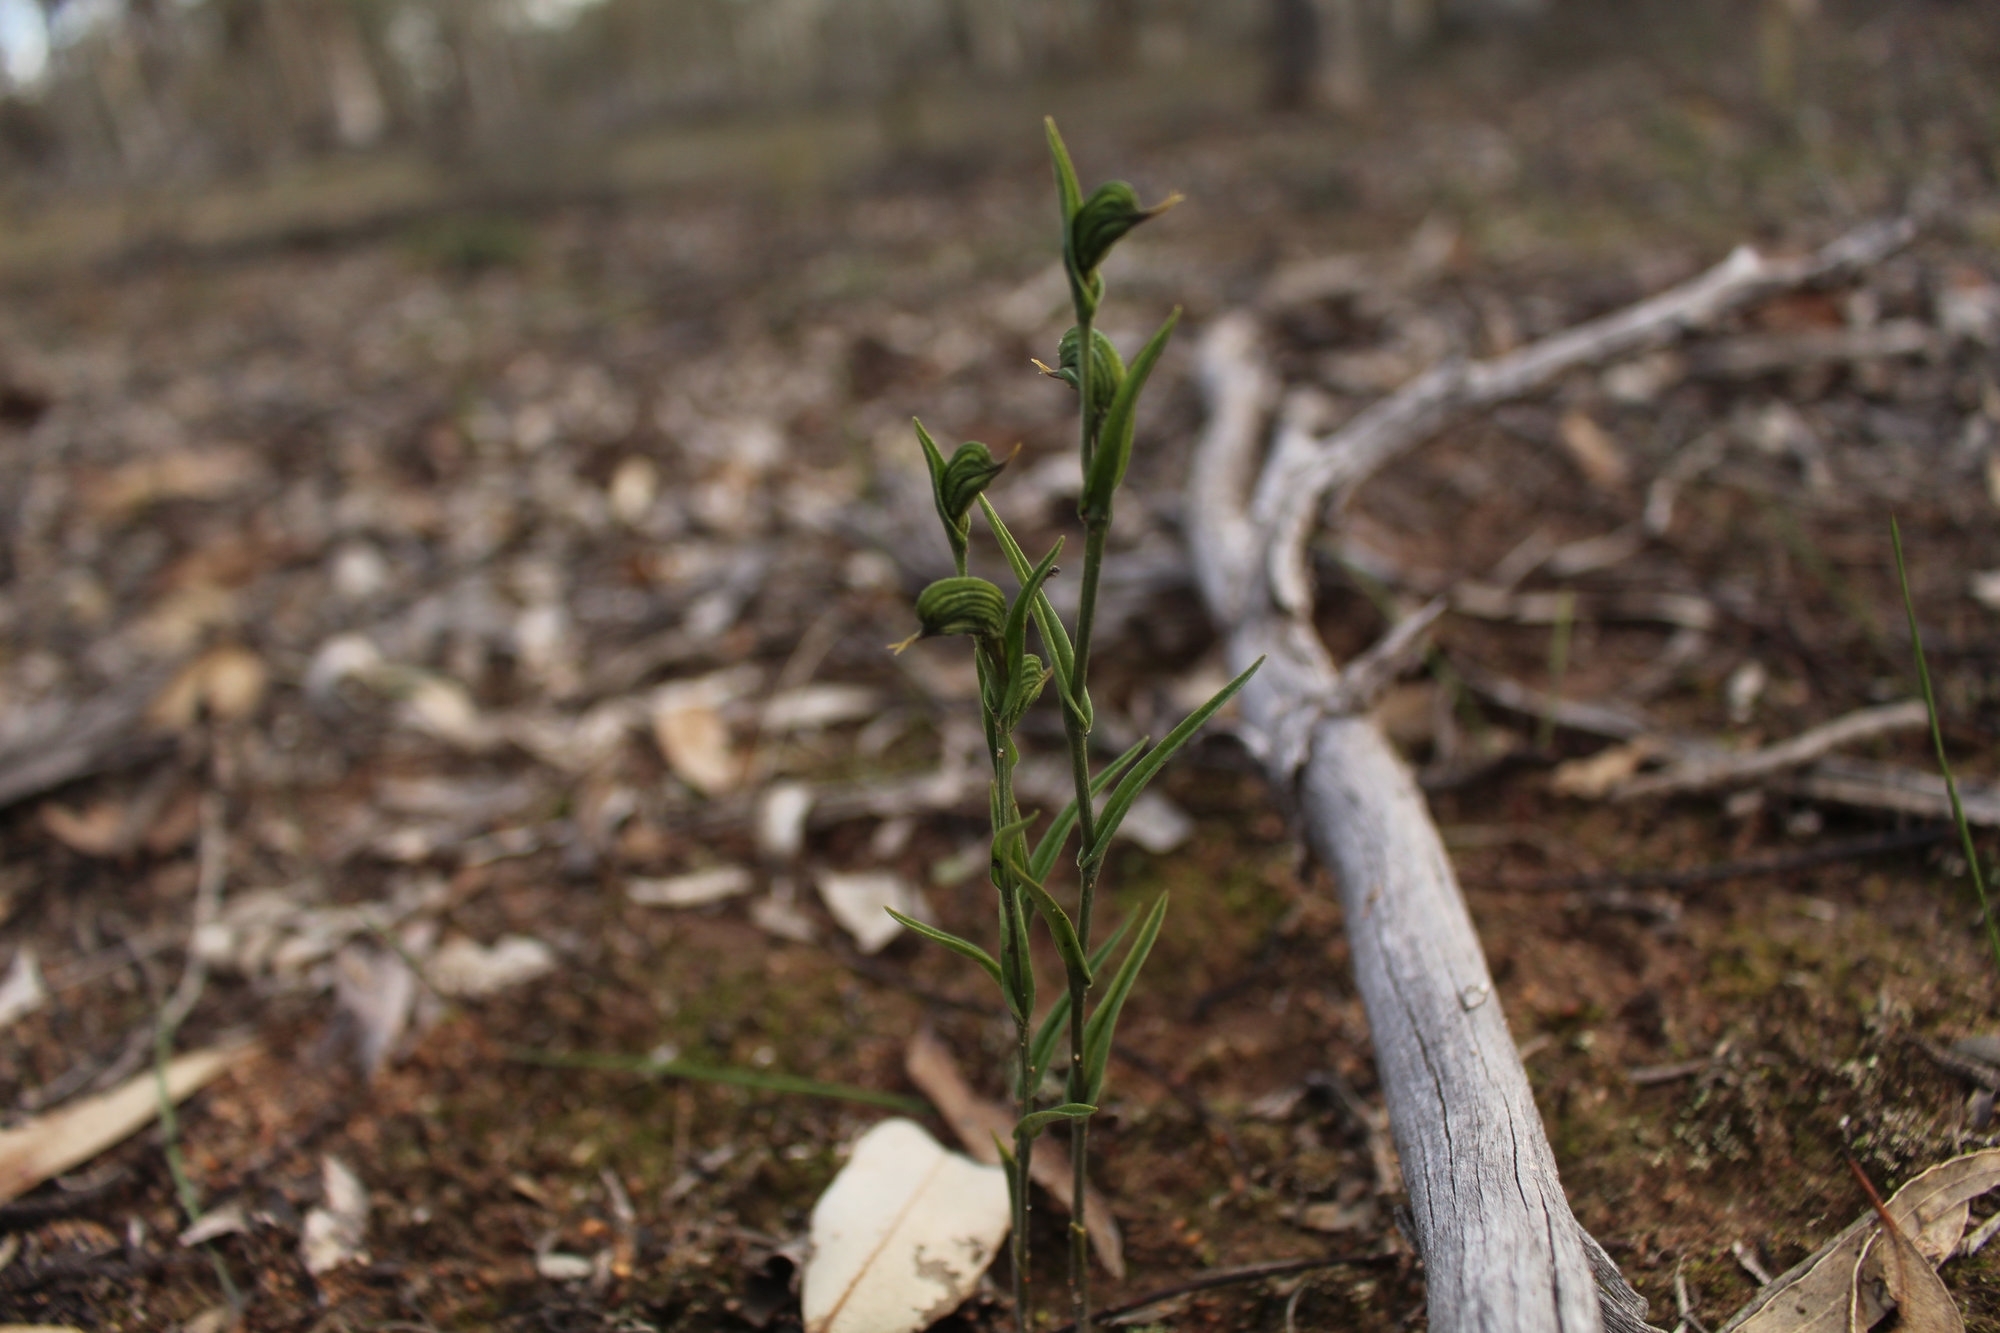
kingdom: Plantae
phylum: Tracheophyta
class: Liliopsida
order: Asparagales
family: Orchidaceae
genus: Pterostylis
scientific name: Pterostylis sargentii
